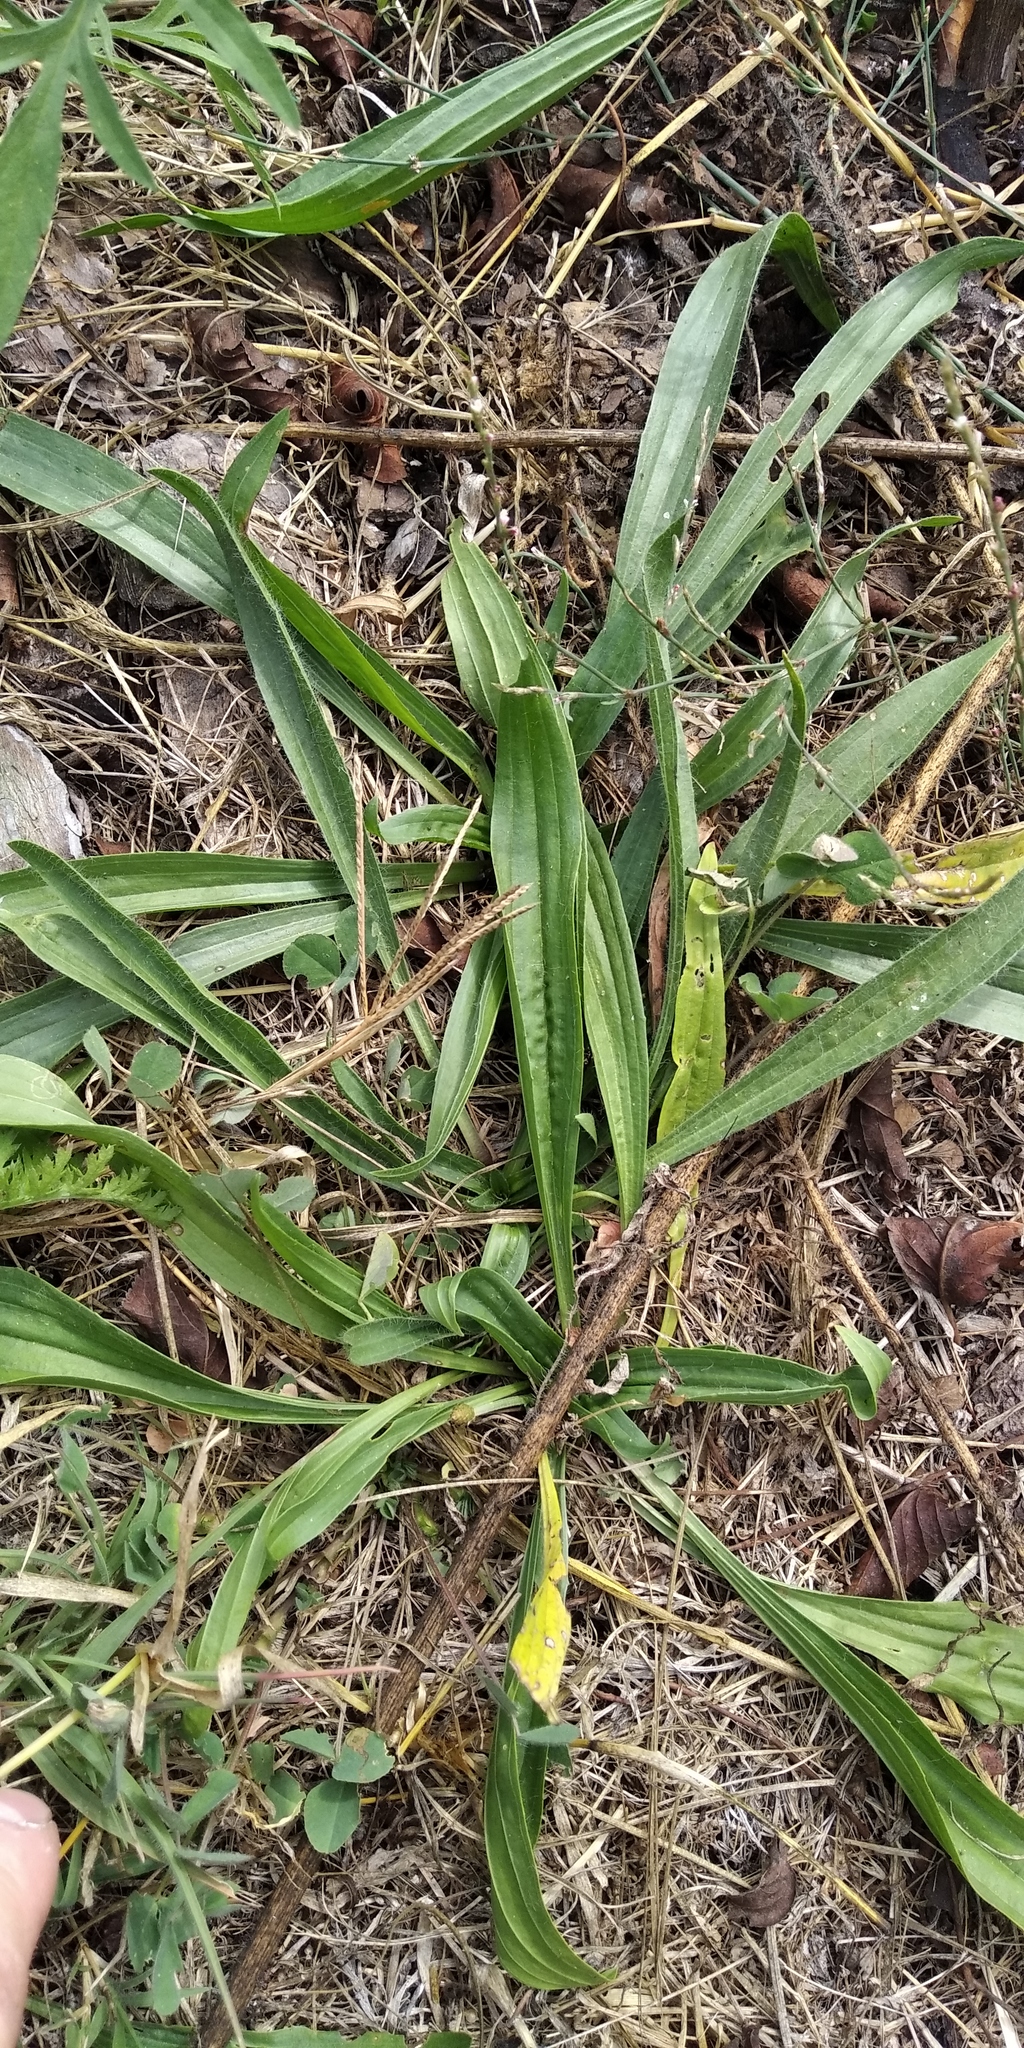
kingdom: Plantae
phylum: Tracheophyta
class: Magnoliopsida
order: Lamiales
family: Plantaginaceae
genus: Plantago
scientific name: Plantago lanceolata
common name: Ribwort plantain
